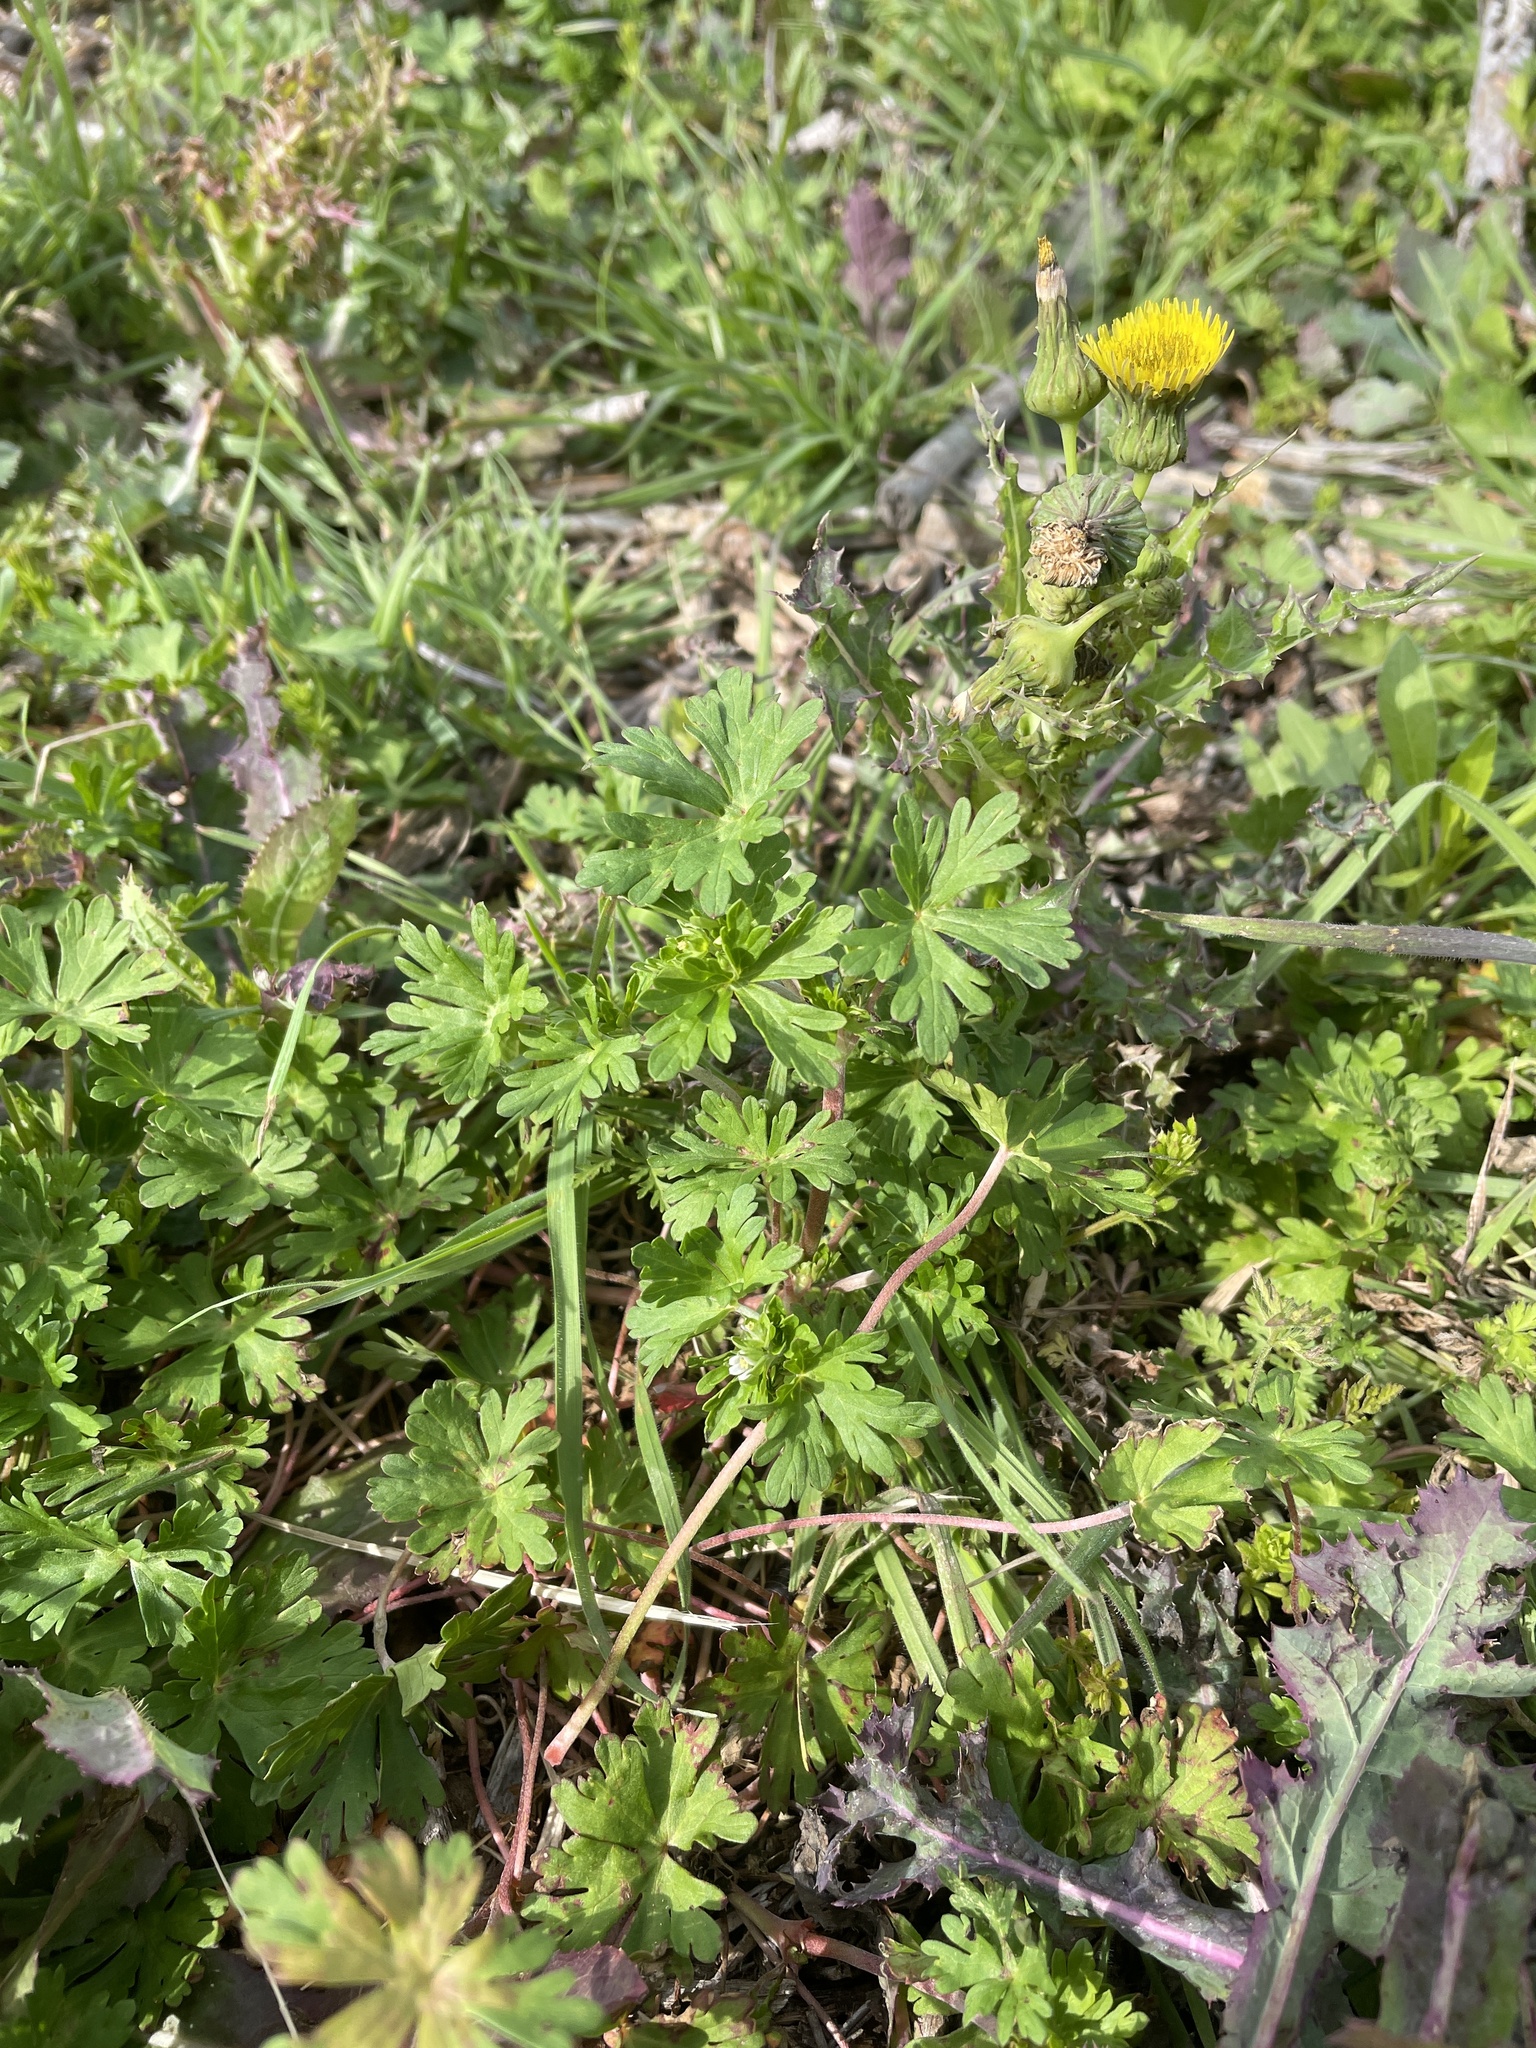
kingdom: Plantae
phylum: Tracheophyta
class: Magnoliopsida
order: Geraniales
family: Geraniaceae
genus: Geranium
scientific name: Geranium texanum
